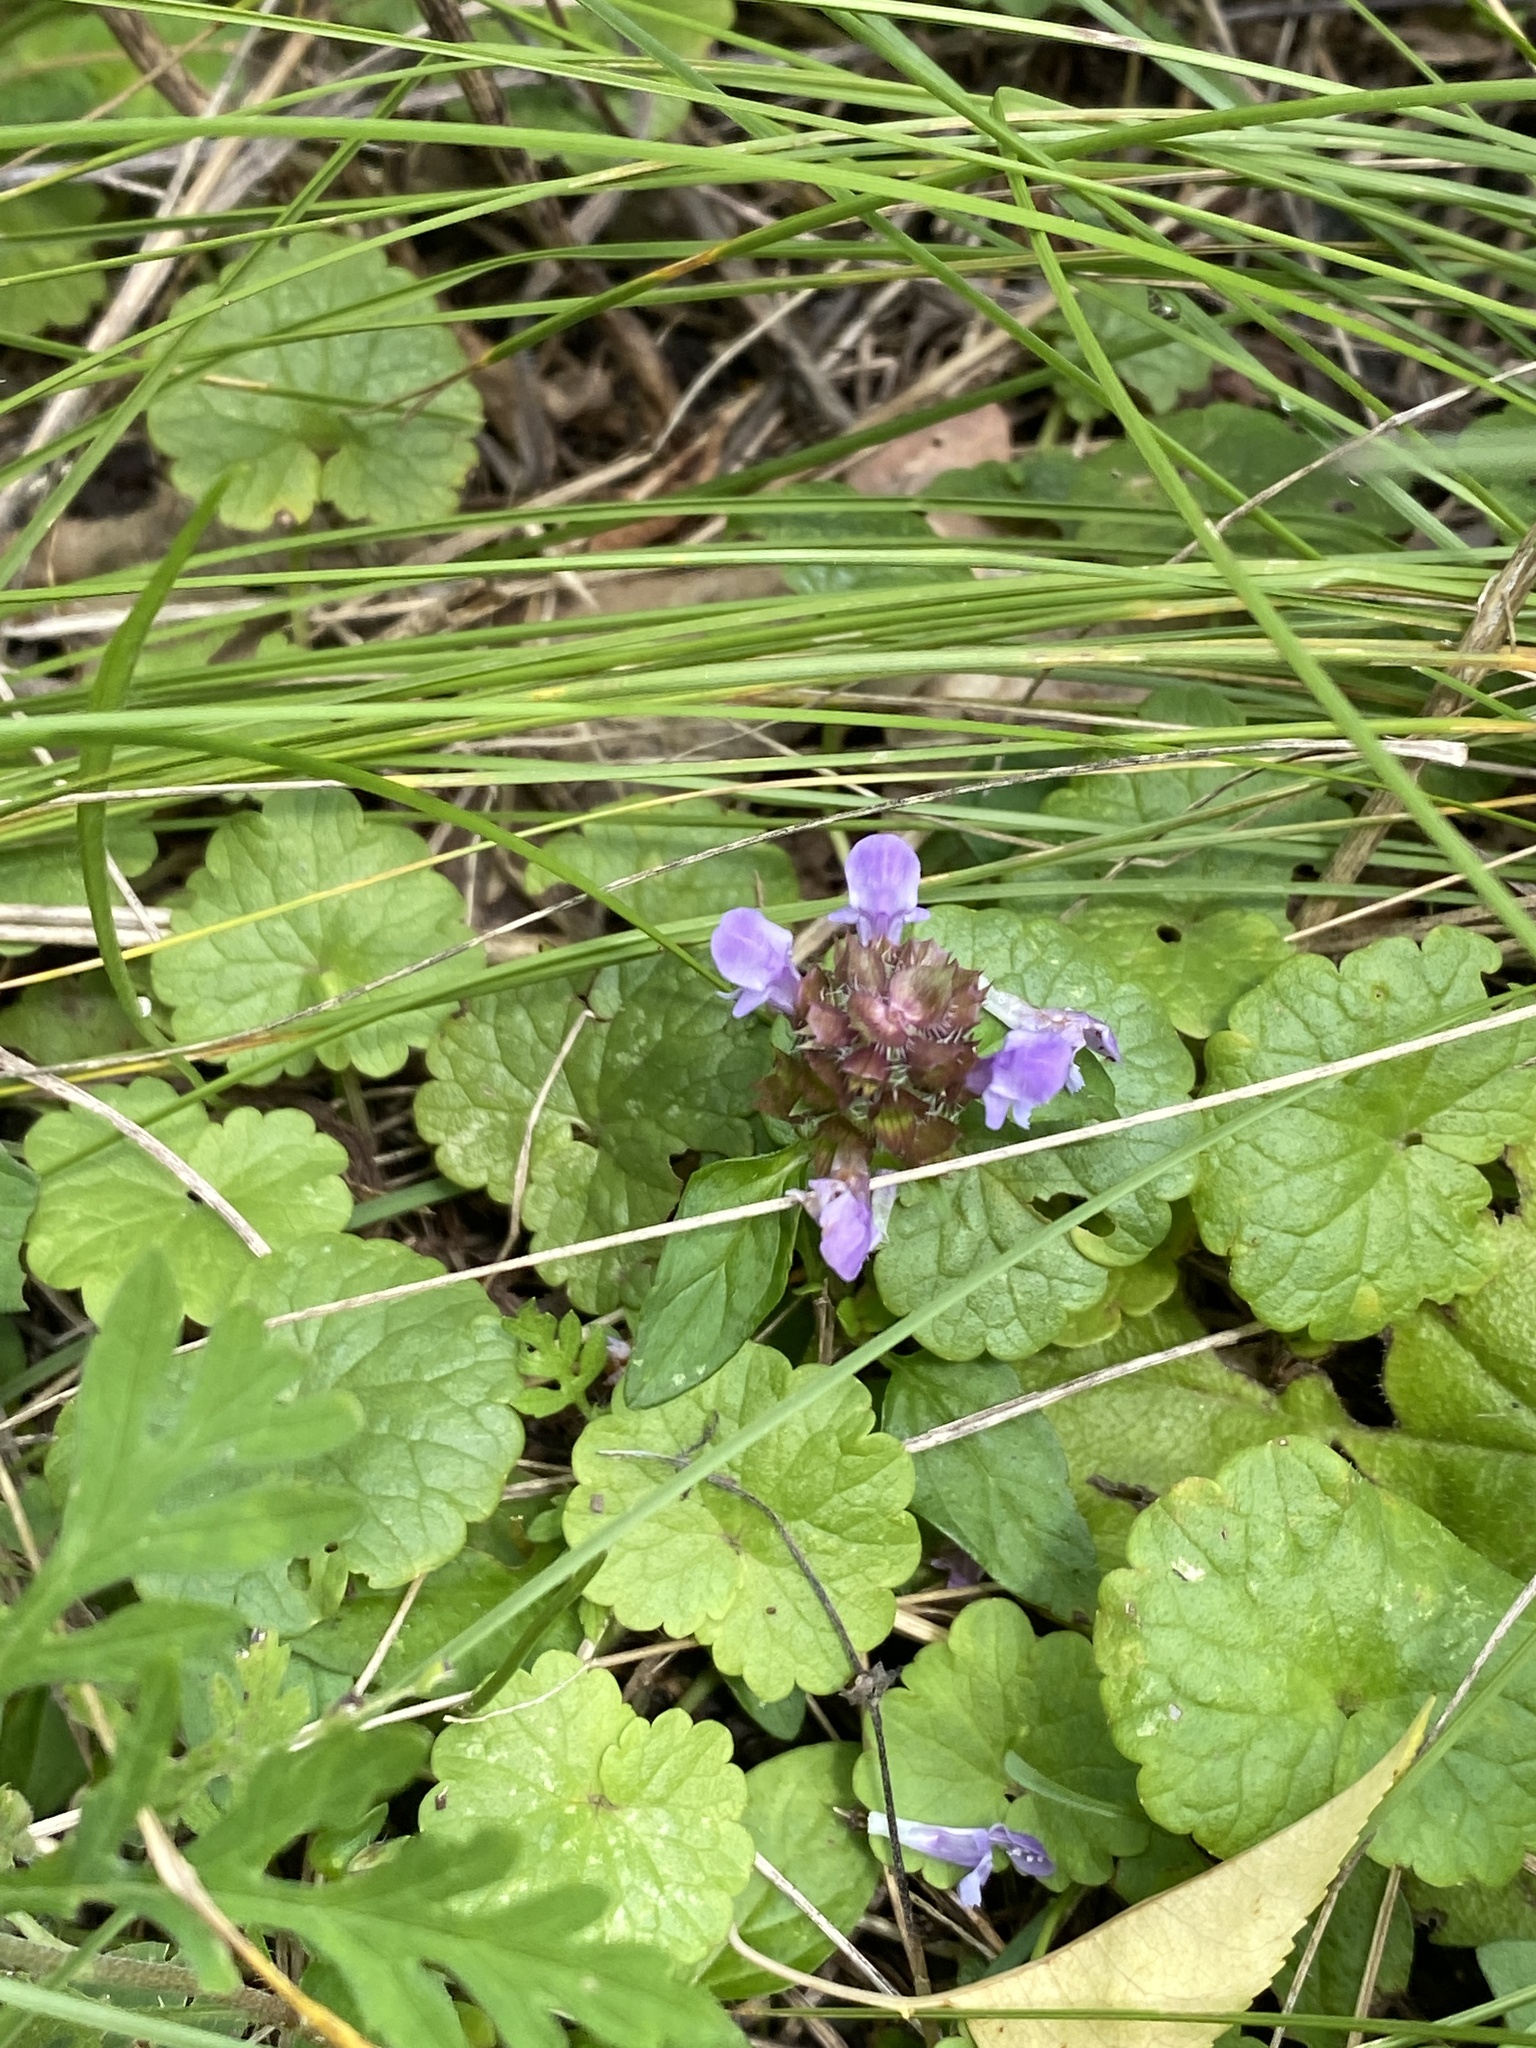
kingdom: Plantae
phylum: Tracheophyta
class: Magnoliopsida
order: Lamiales
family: Lamiaceae
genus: Prunella
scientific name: Prunella vulgaris
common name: Heal-all
